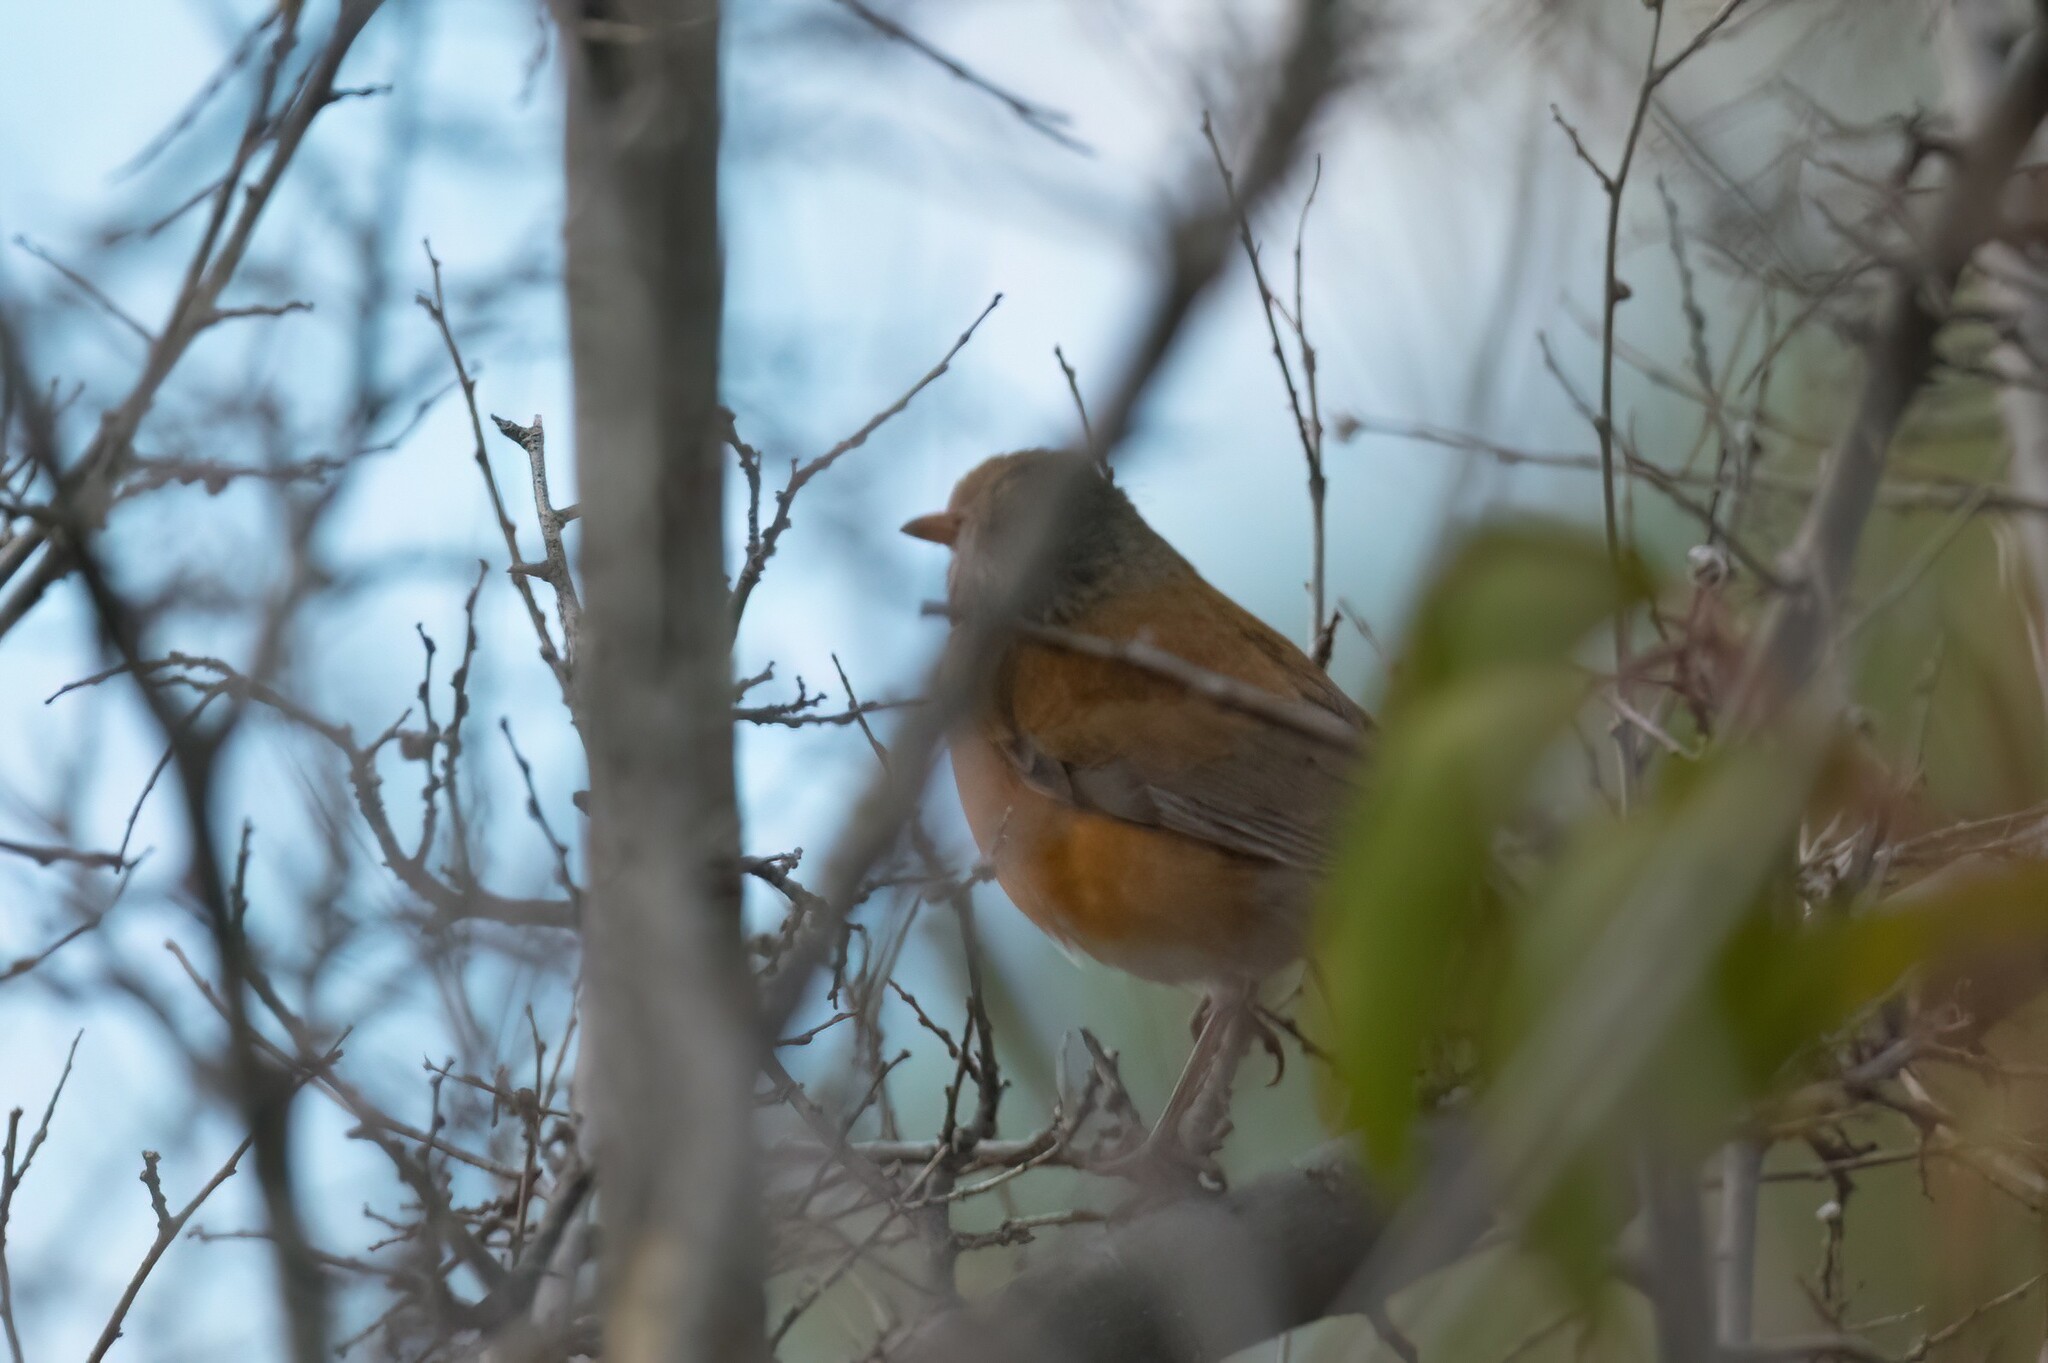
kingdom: Animalia
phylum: Chordata
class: Aves
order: Passeriformes
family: Turdidae
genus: Turdus
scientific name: Turdus rufopalliatus
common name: Rufous-backed robin
